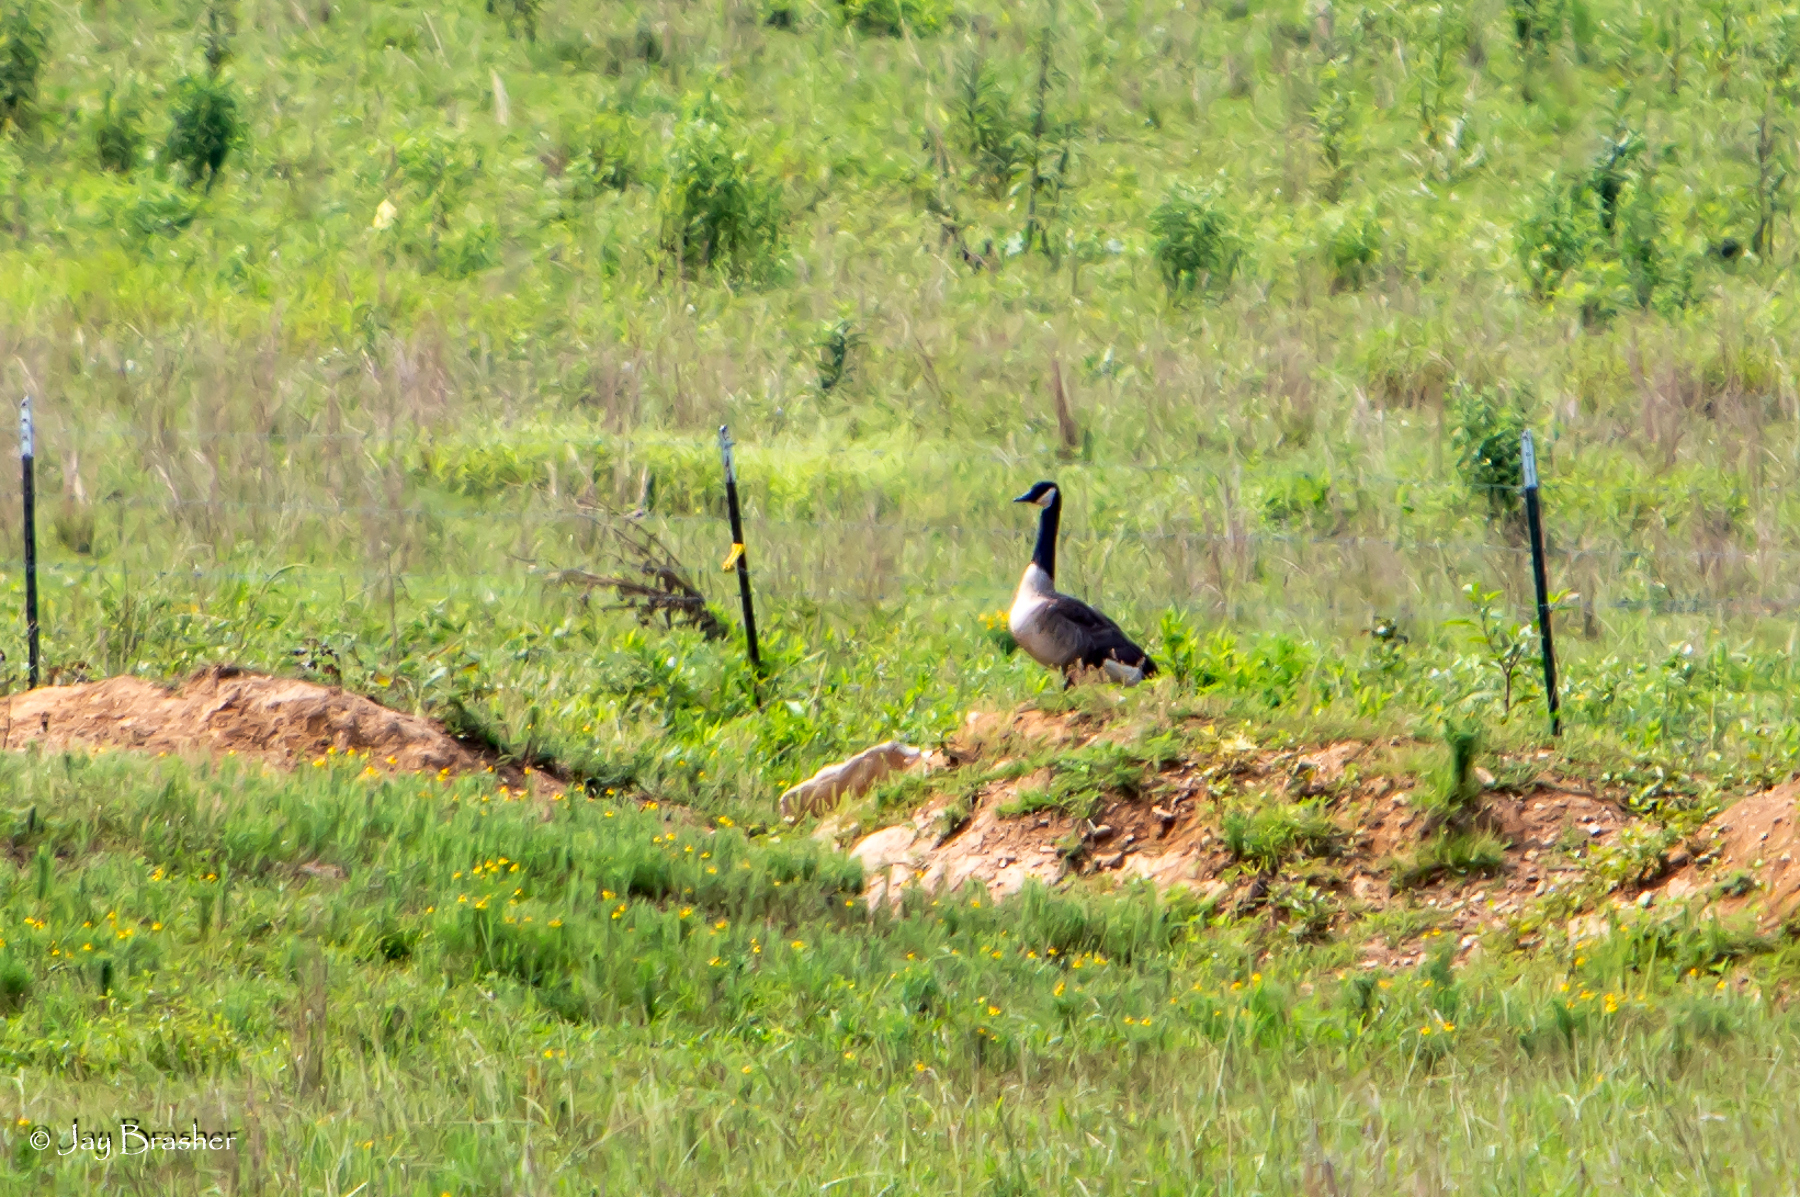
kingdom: Animalia
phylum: Chordata
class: Aves
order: Anseriformes
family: Anatidae
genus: Branta
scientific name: Branta canadensis
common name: Canada goose
